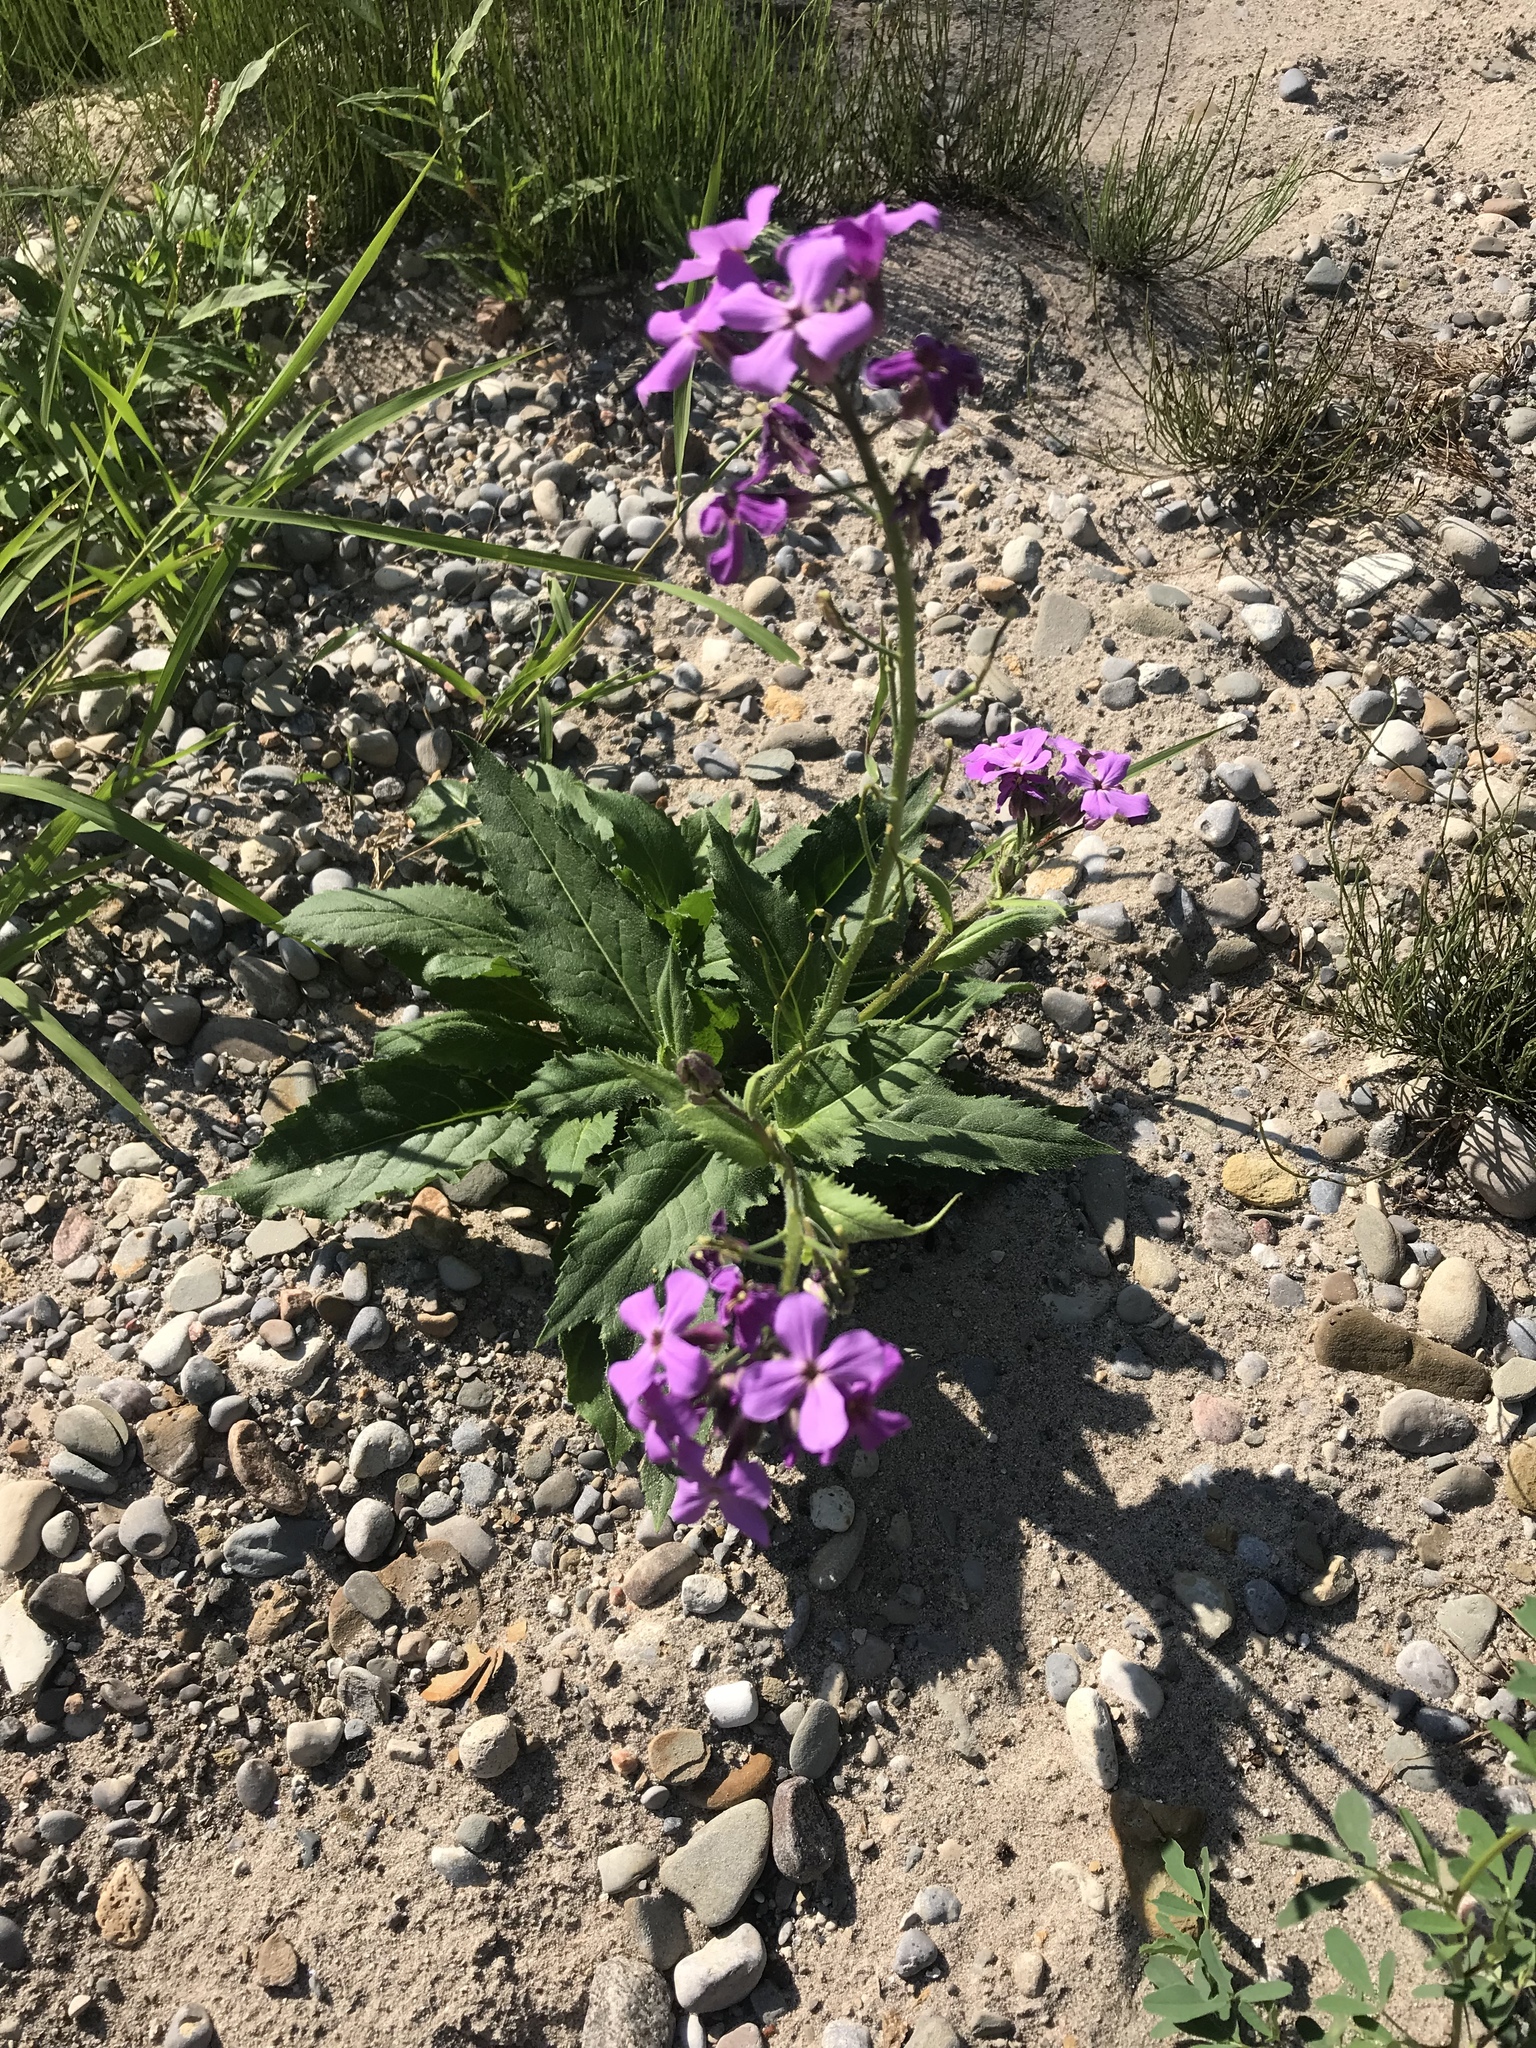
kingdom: Plantae
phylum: Tracheophyta
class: Magnoliopsida
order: Brassicales
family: Brassicaceae
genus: Hesperis
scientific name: Hesperis matronalis
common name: Dame's-violet
